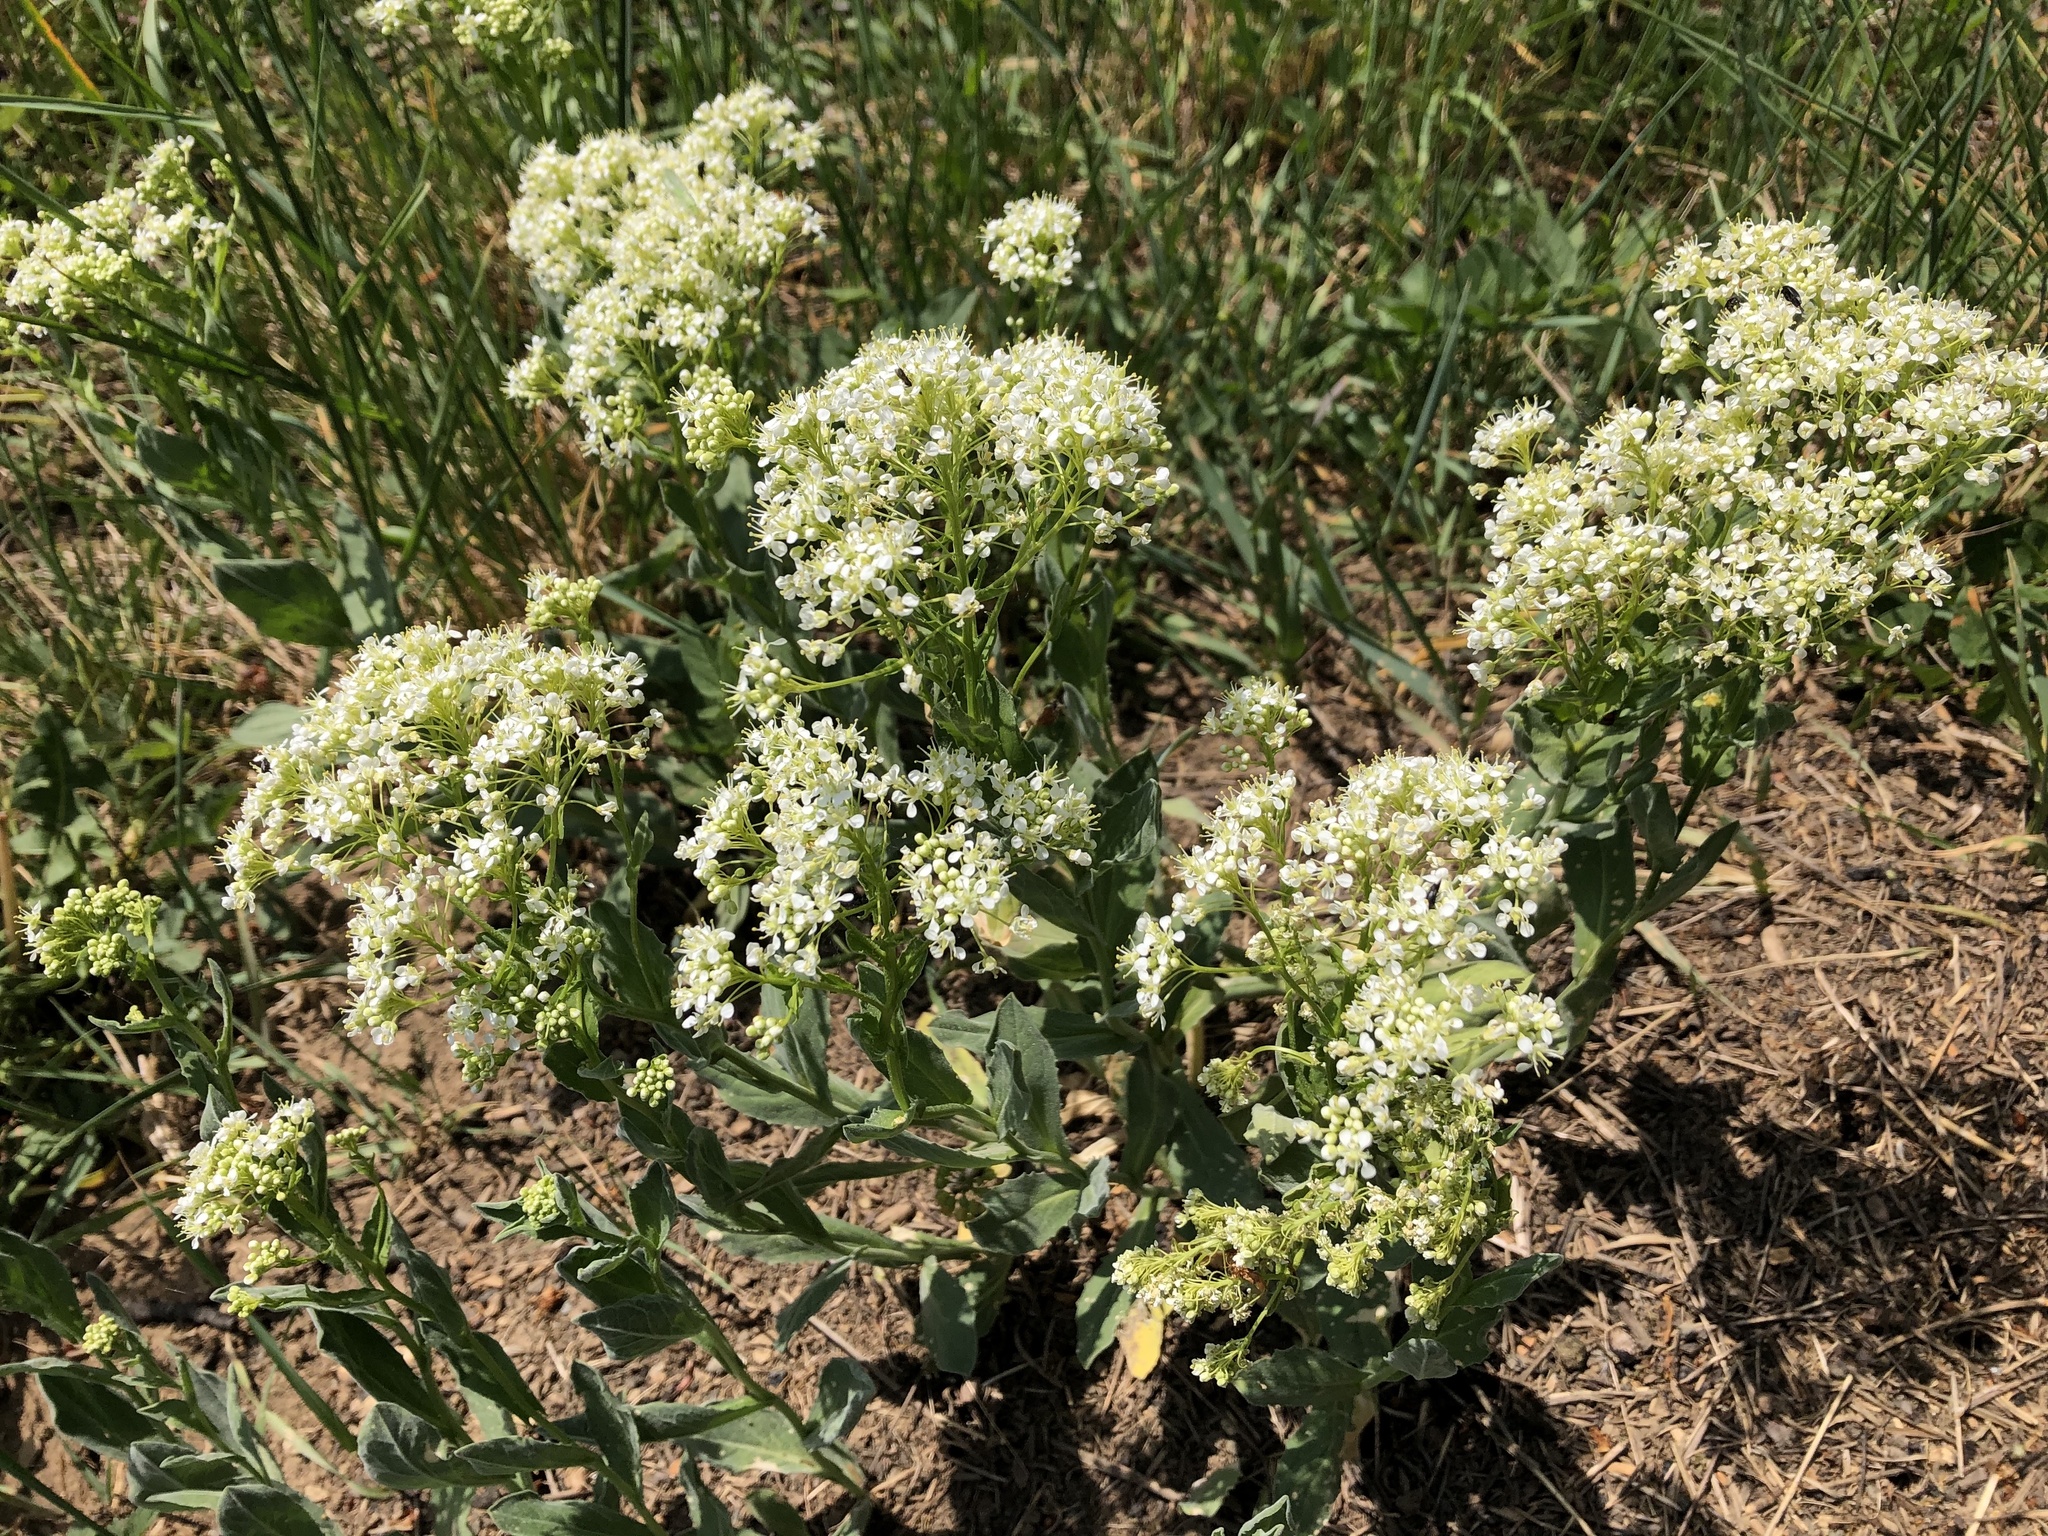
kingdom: Plantae
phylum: Tracheophyta
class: Magnoliopsida
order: Brassicales
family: Brassicaceae
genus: Lepidium
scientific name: Lepidium draba
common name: Hoary cress
